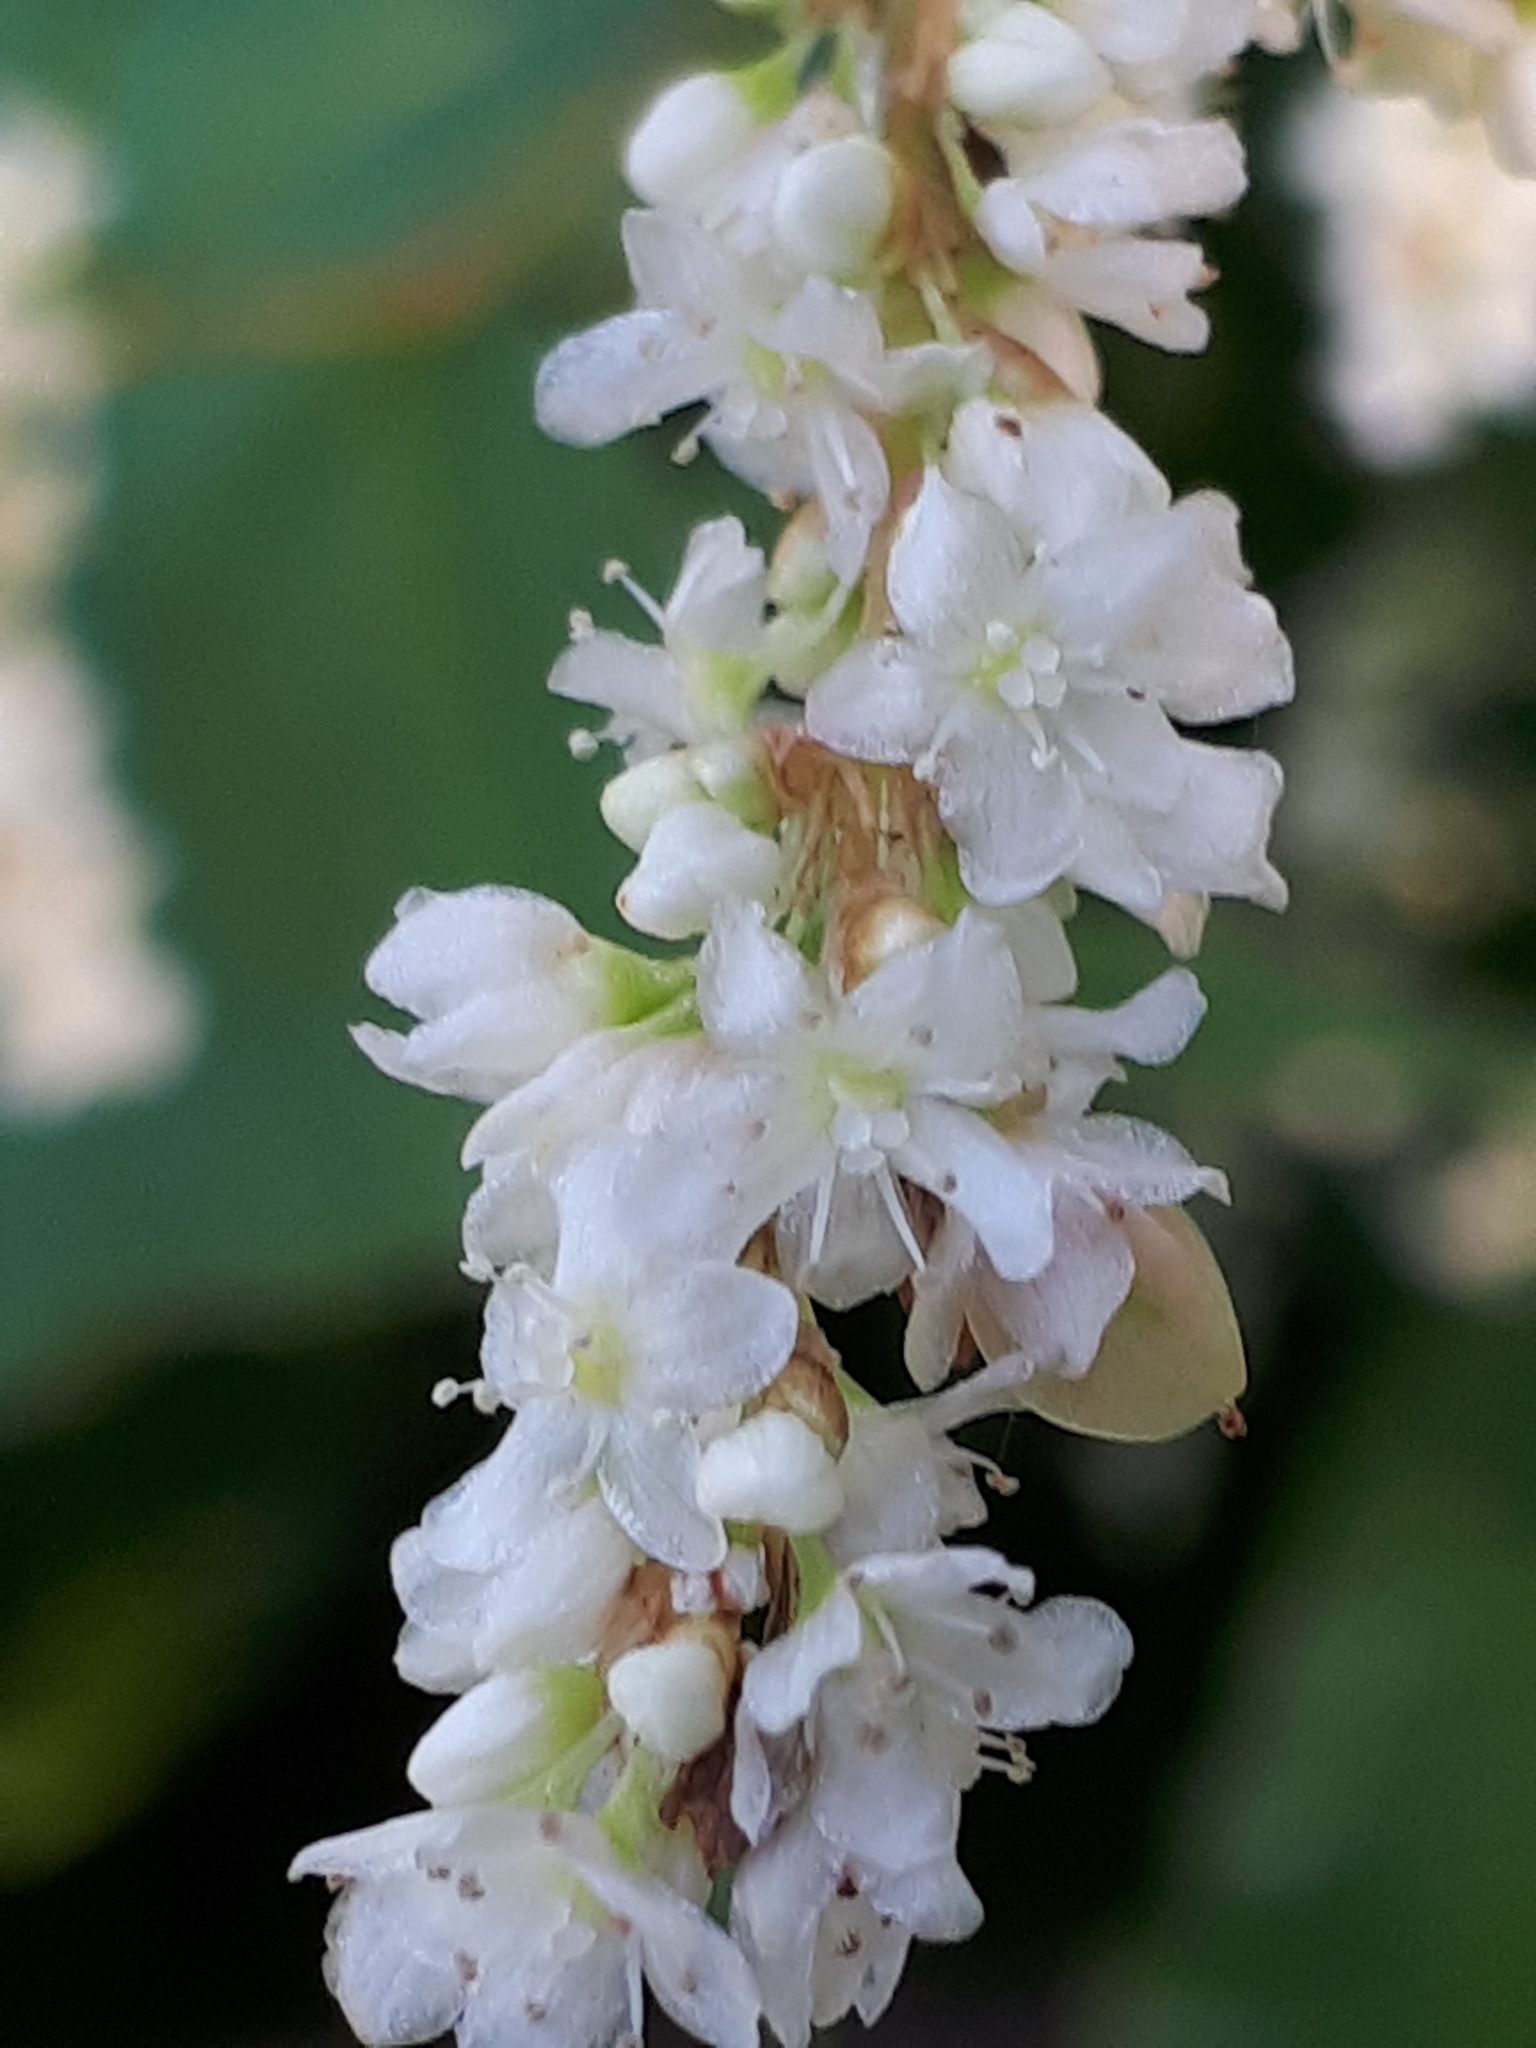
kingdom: Plantae
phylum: Tracheophyta
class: Magnoliopsida
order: Caryophyllales
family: Polygonaceae
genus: Koenigia
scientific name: Koenigia polystachya
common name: Himalayan knotweed
